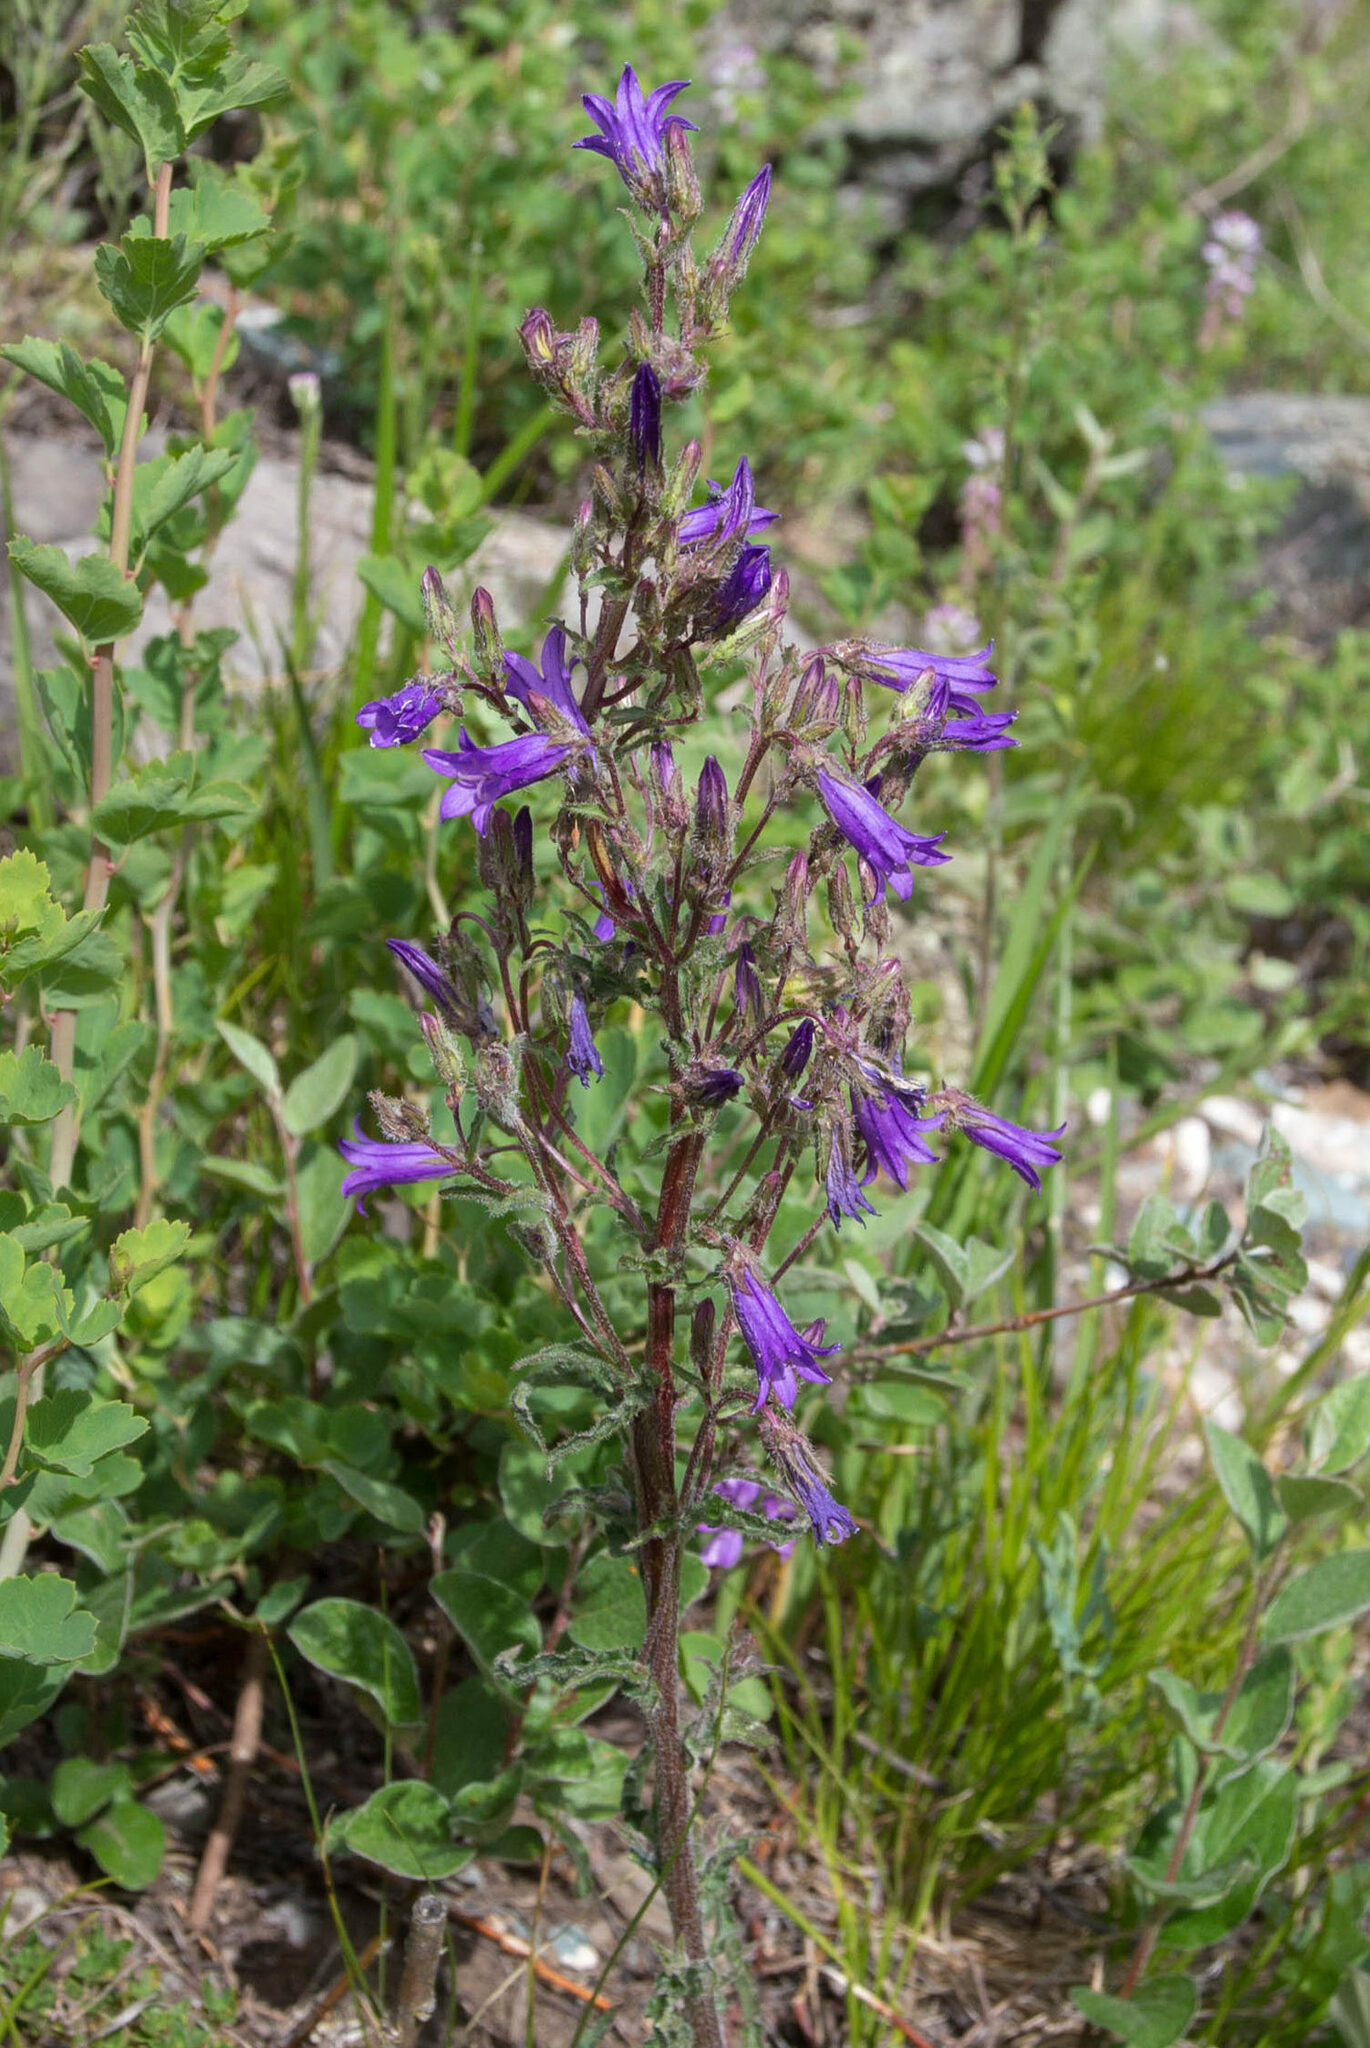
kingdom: Plantae
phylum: Tracheophyta
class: Magnoliopsida
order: Asterales
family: Campanulaceae
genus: Campanula
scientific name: Campanula sibirica
